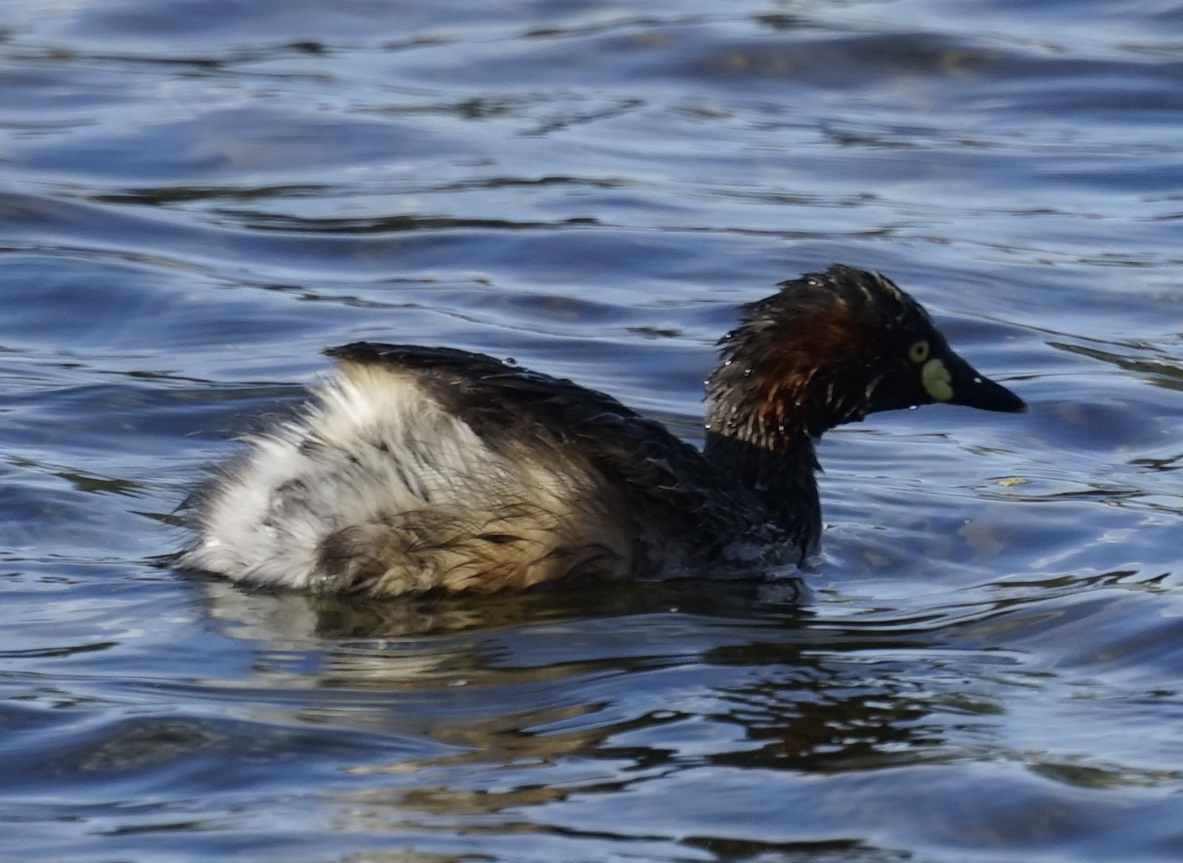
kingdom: Animalia
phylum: Chordata
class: Aves
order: Podicipediformes
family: Podicipedidae
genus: Tachybaptus
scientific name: Tachybaptus novaehollandiae
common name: Australasian grebe
